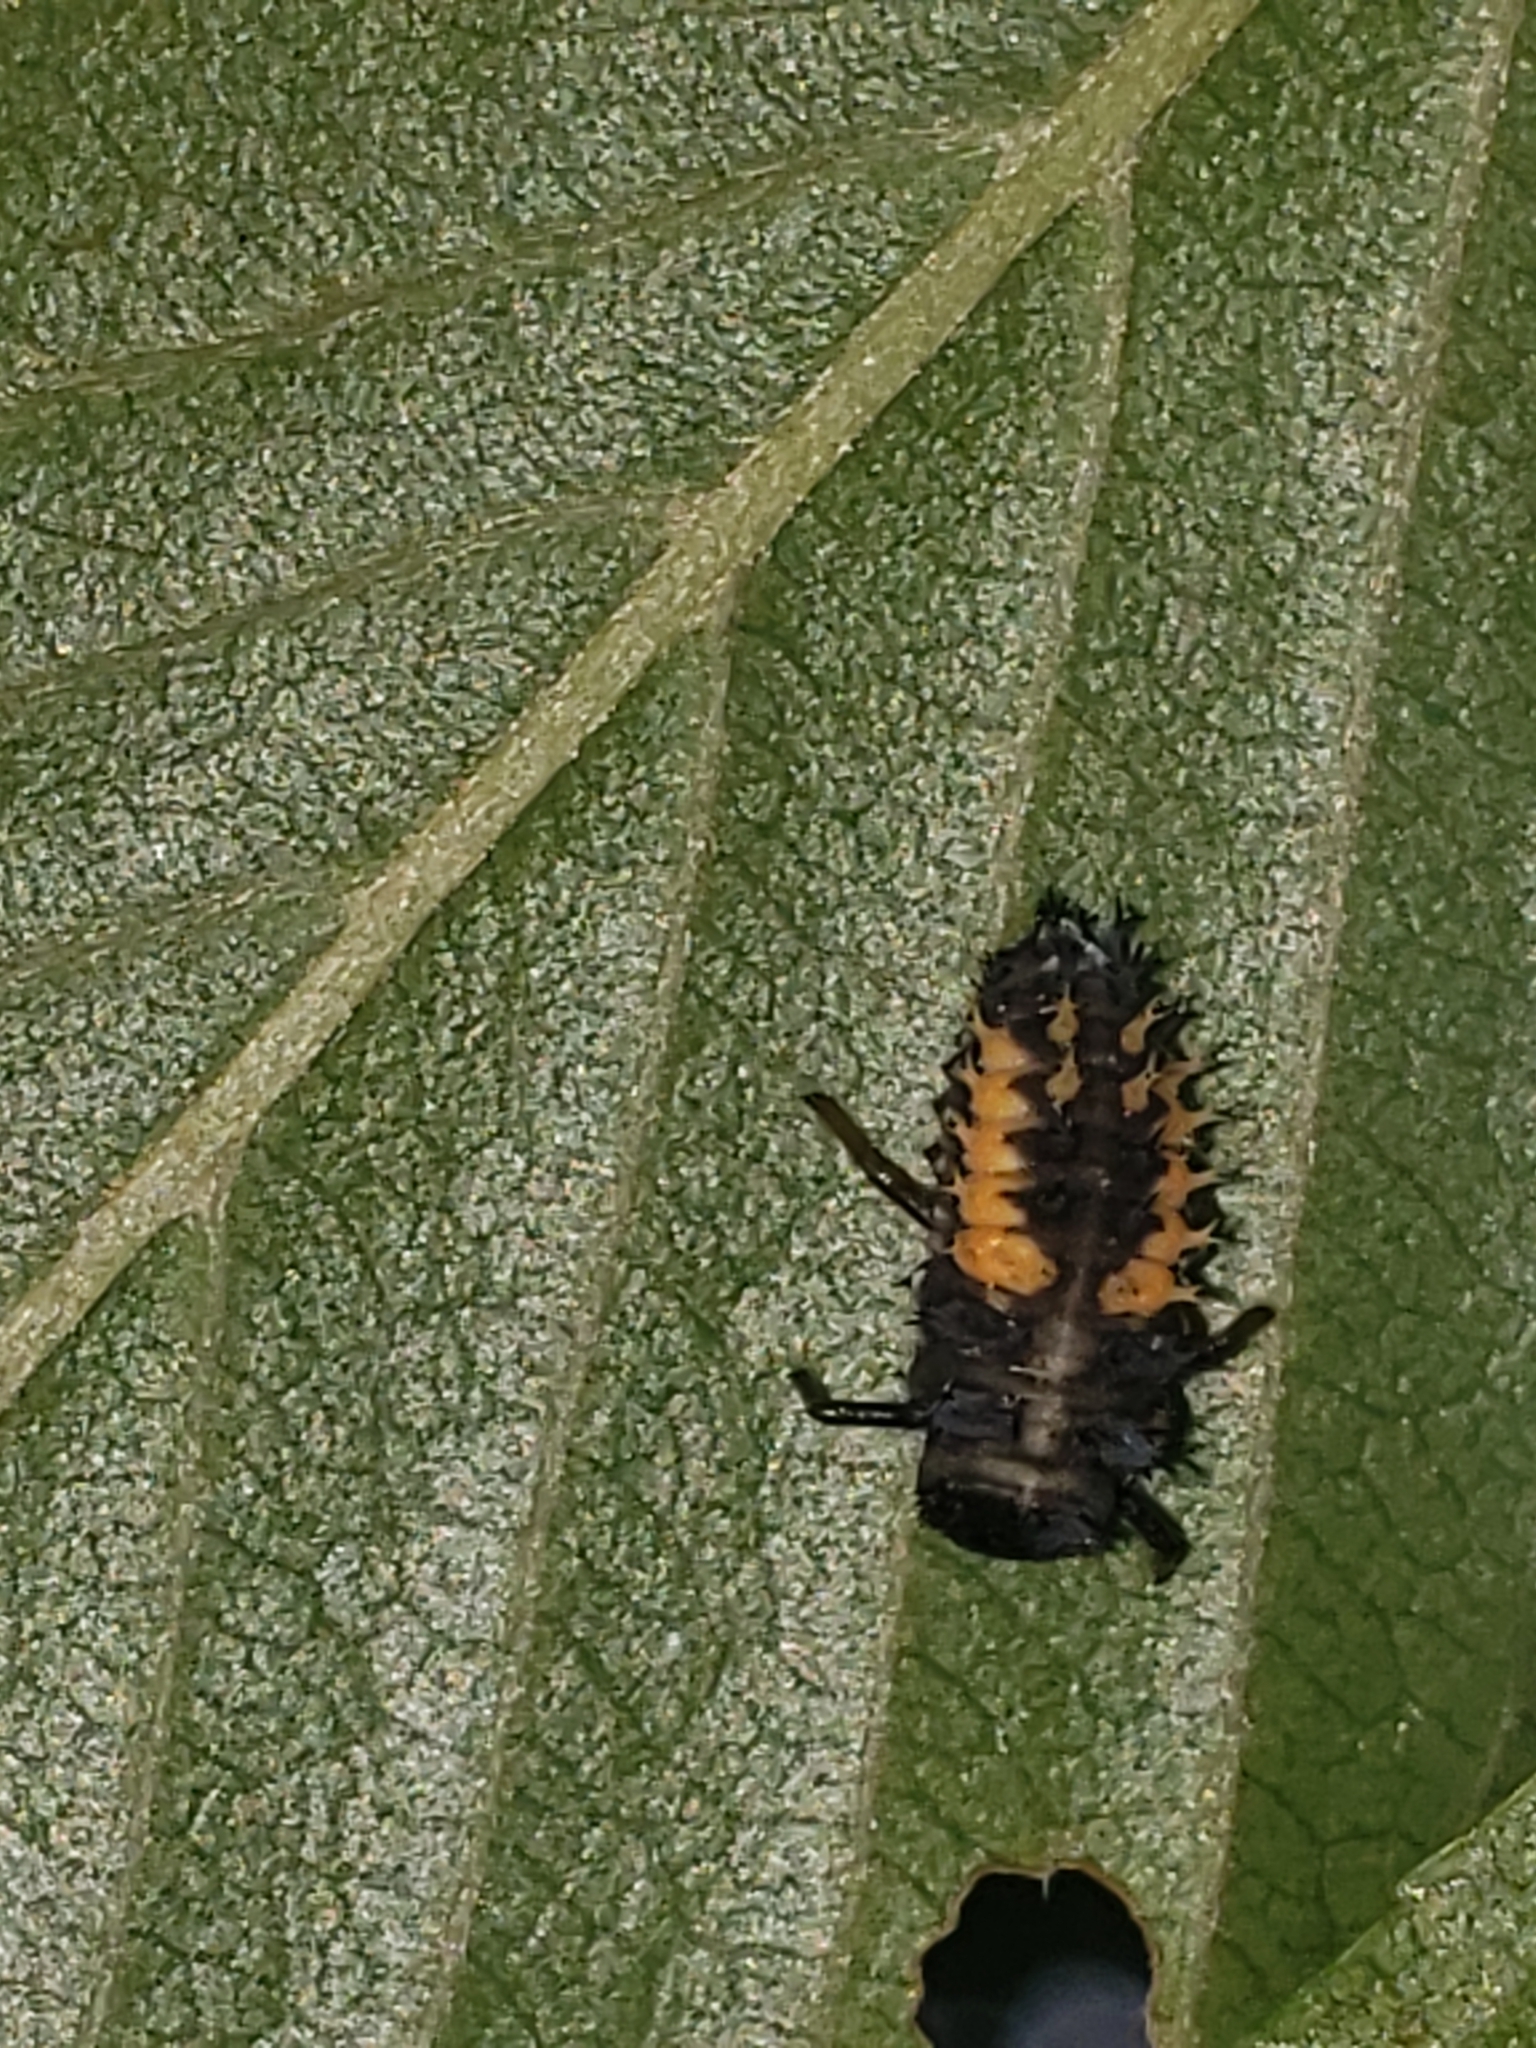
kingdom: Animalia
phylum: Arthropoda
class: Insecta
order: Coleoptera
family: Coccinellidae
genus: Harmonia
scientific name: Harmonia axyridis
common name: Harlequin ladybird
